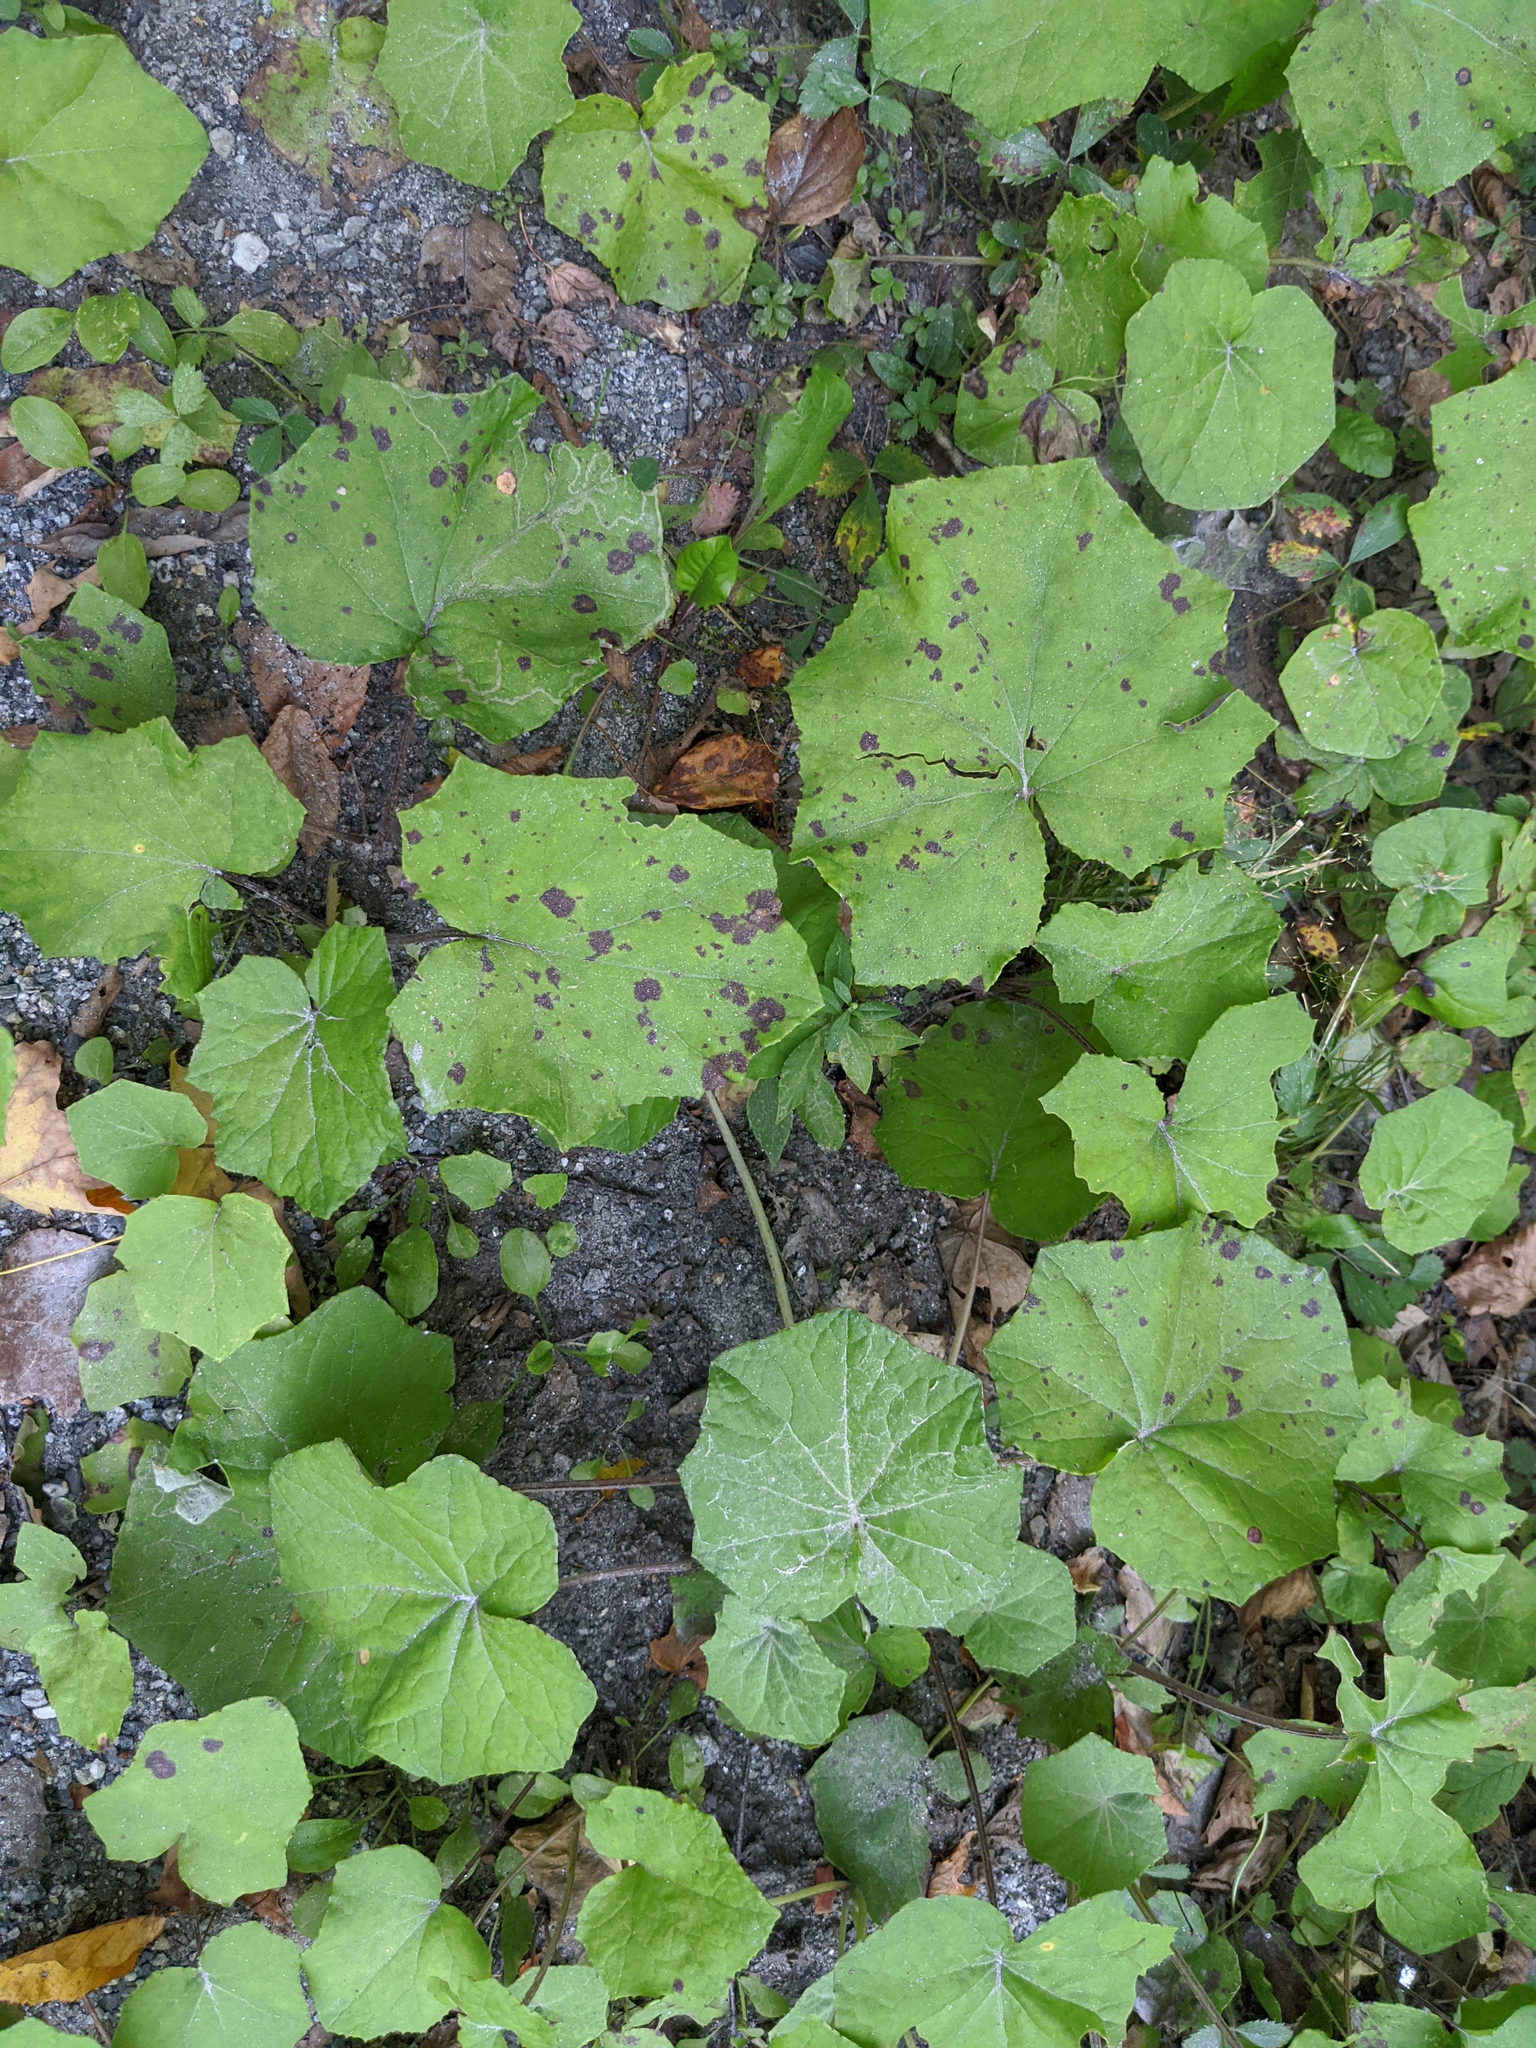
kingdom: Plantae
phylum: Tracheophyta
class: Magnoliopsida
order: Asterales
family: Asteraceae
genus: Tussilago
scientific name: Tussilago farfara
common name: Coltsfoot
